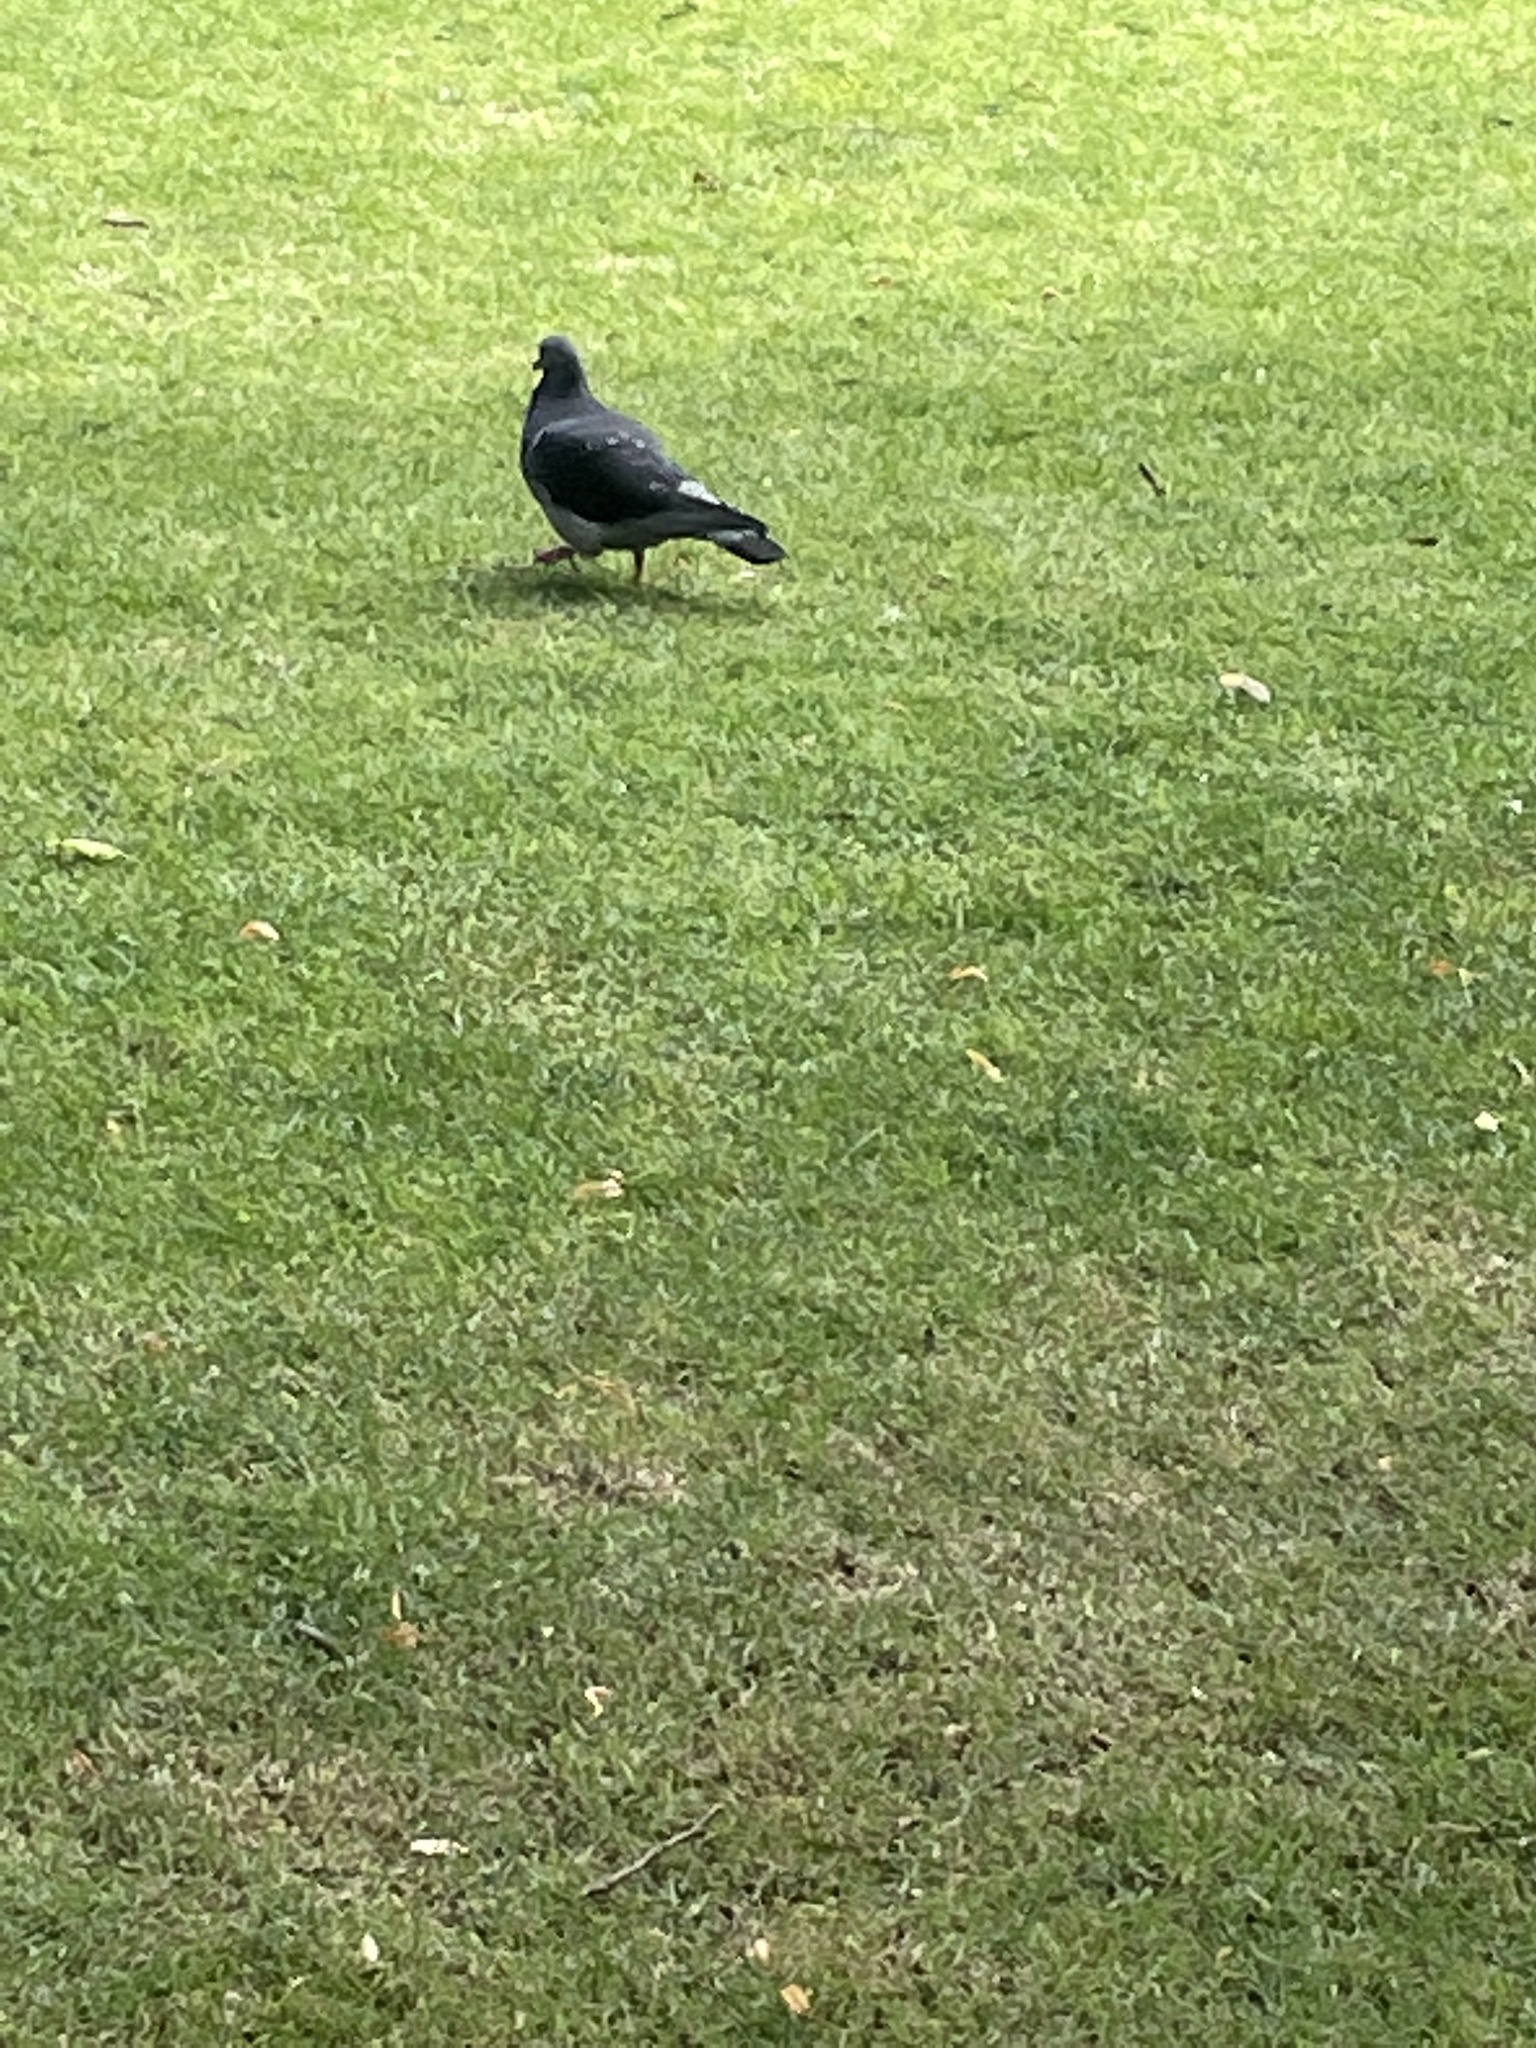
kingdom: Animalia
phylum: Chordata
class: Aves
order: Columbiformes
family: Columbidae
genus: Columba
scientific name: Columba livia
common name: Rock pigeon
